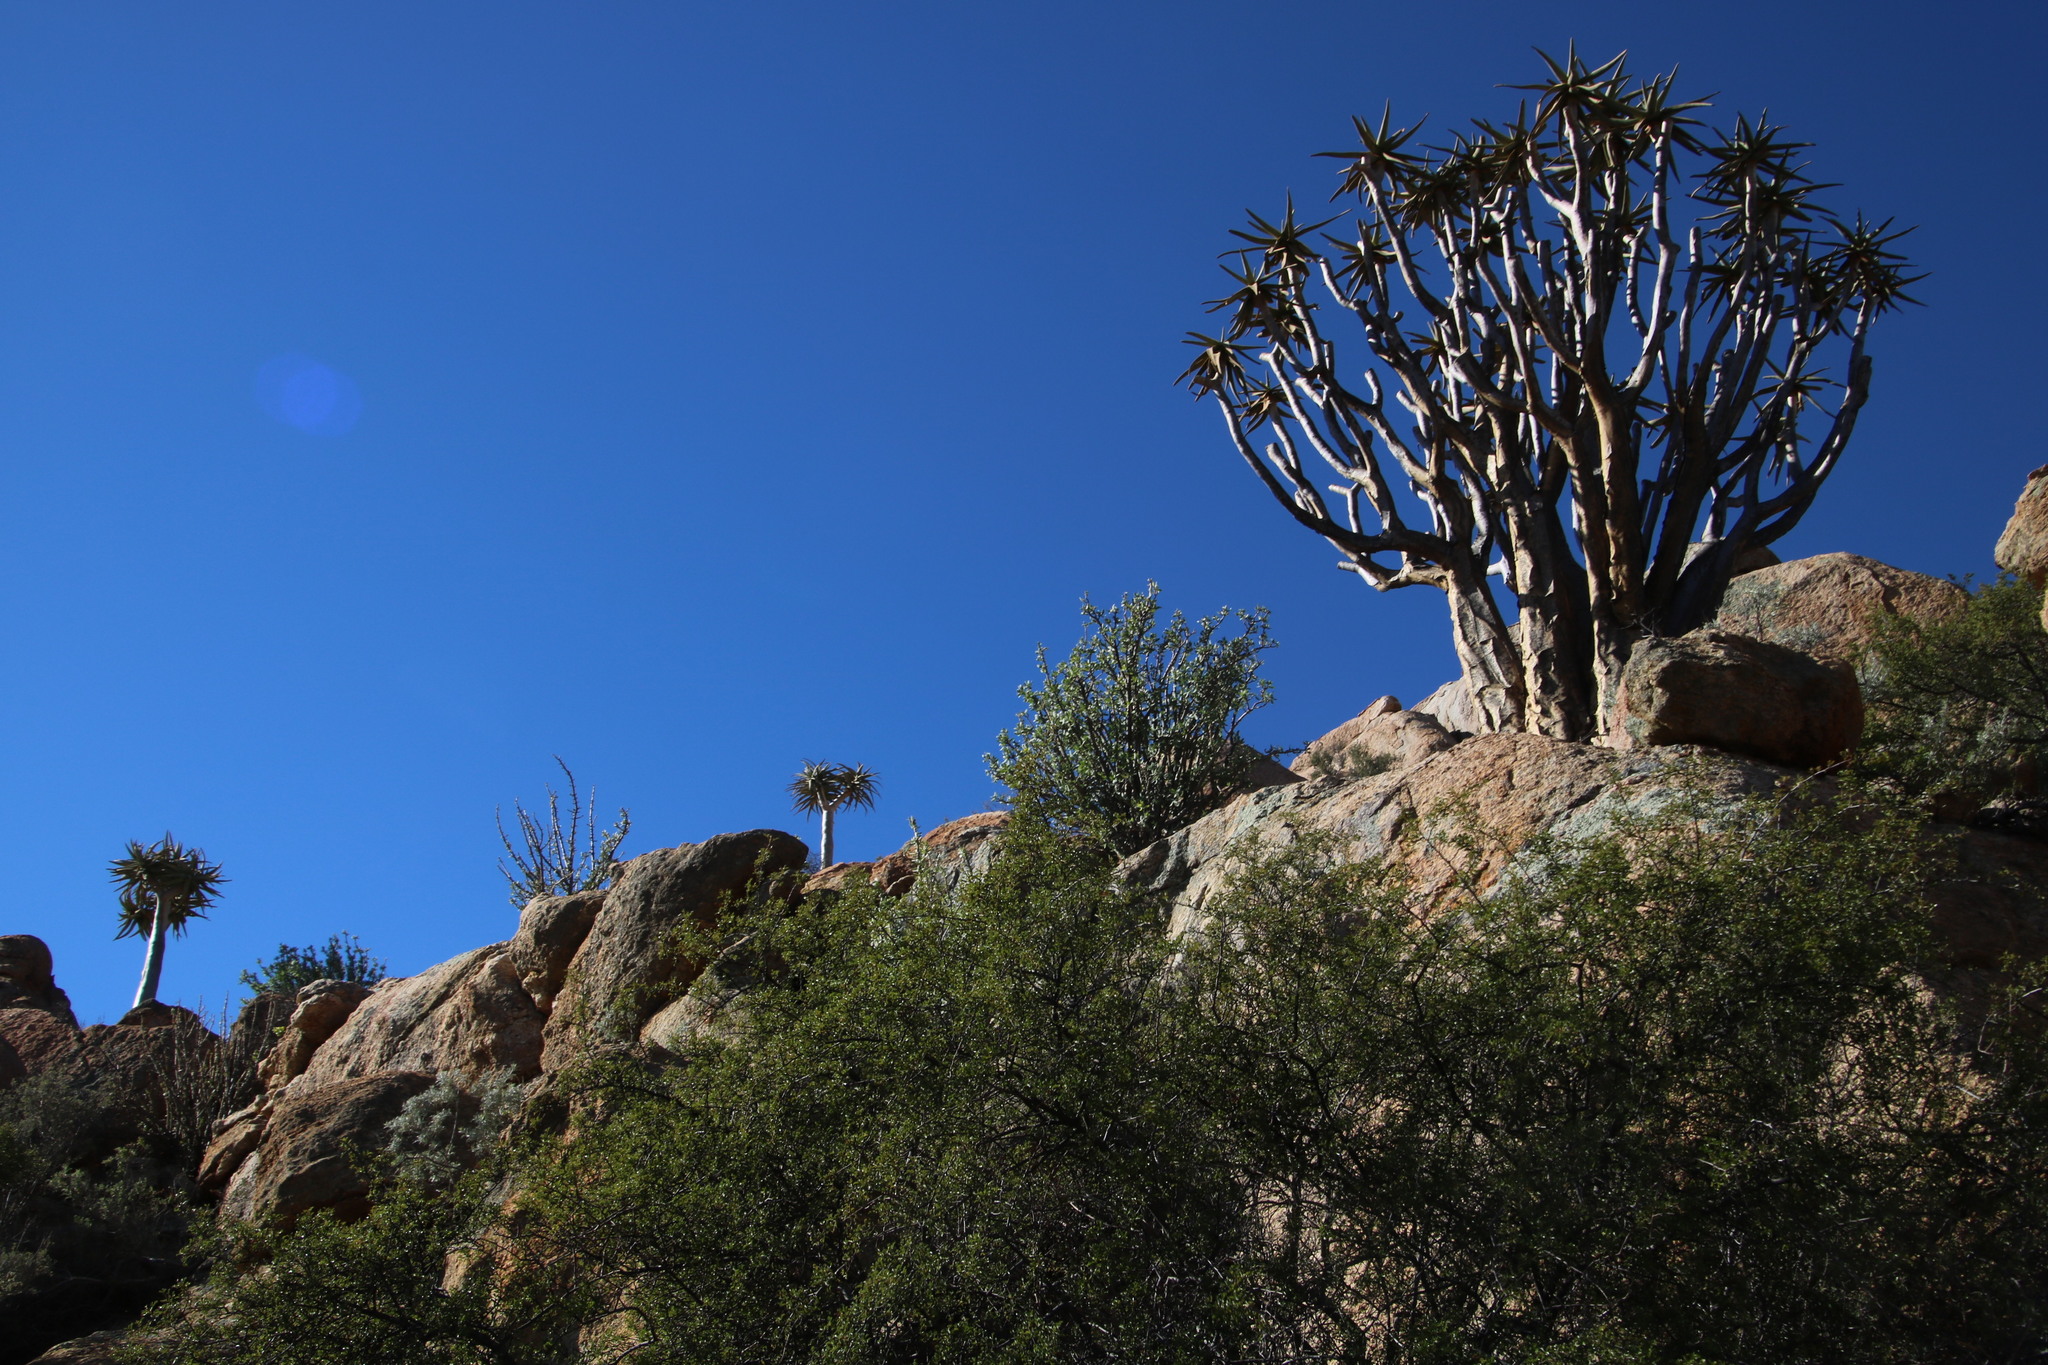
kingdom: Plantae
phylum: Tracheophyta
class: Liliopsida
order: Asparagales
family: Asphodelaceae
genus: Aloidendron
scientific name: Aloidendron dichotomum
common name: Quiver tree
